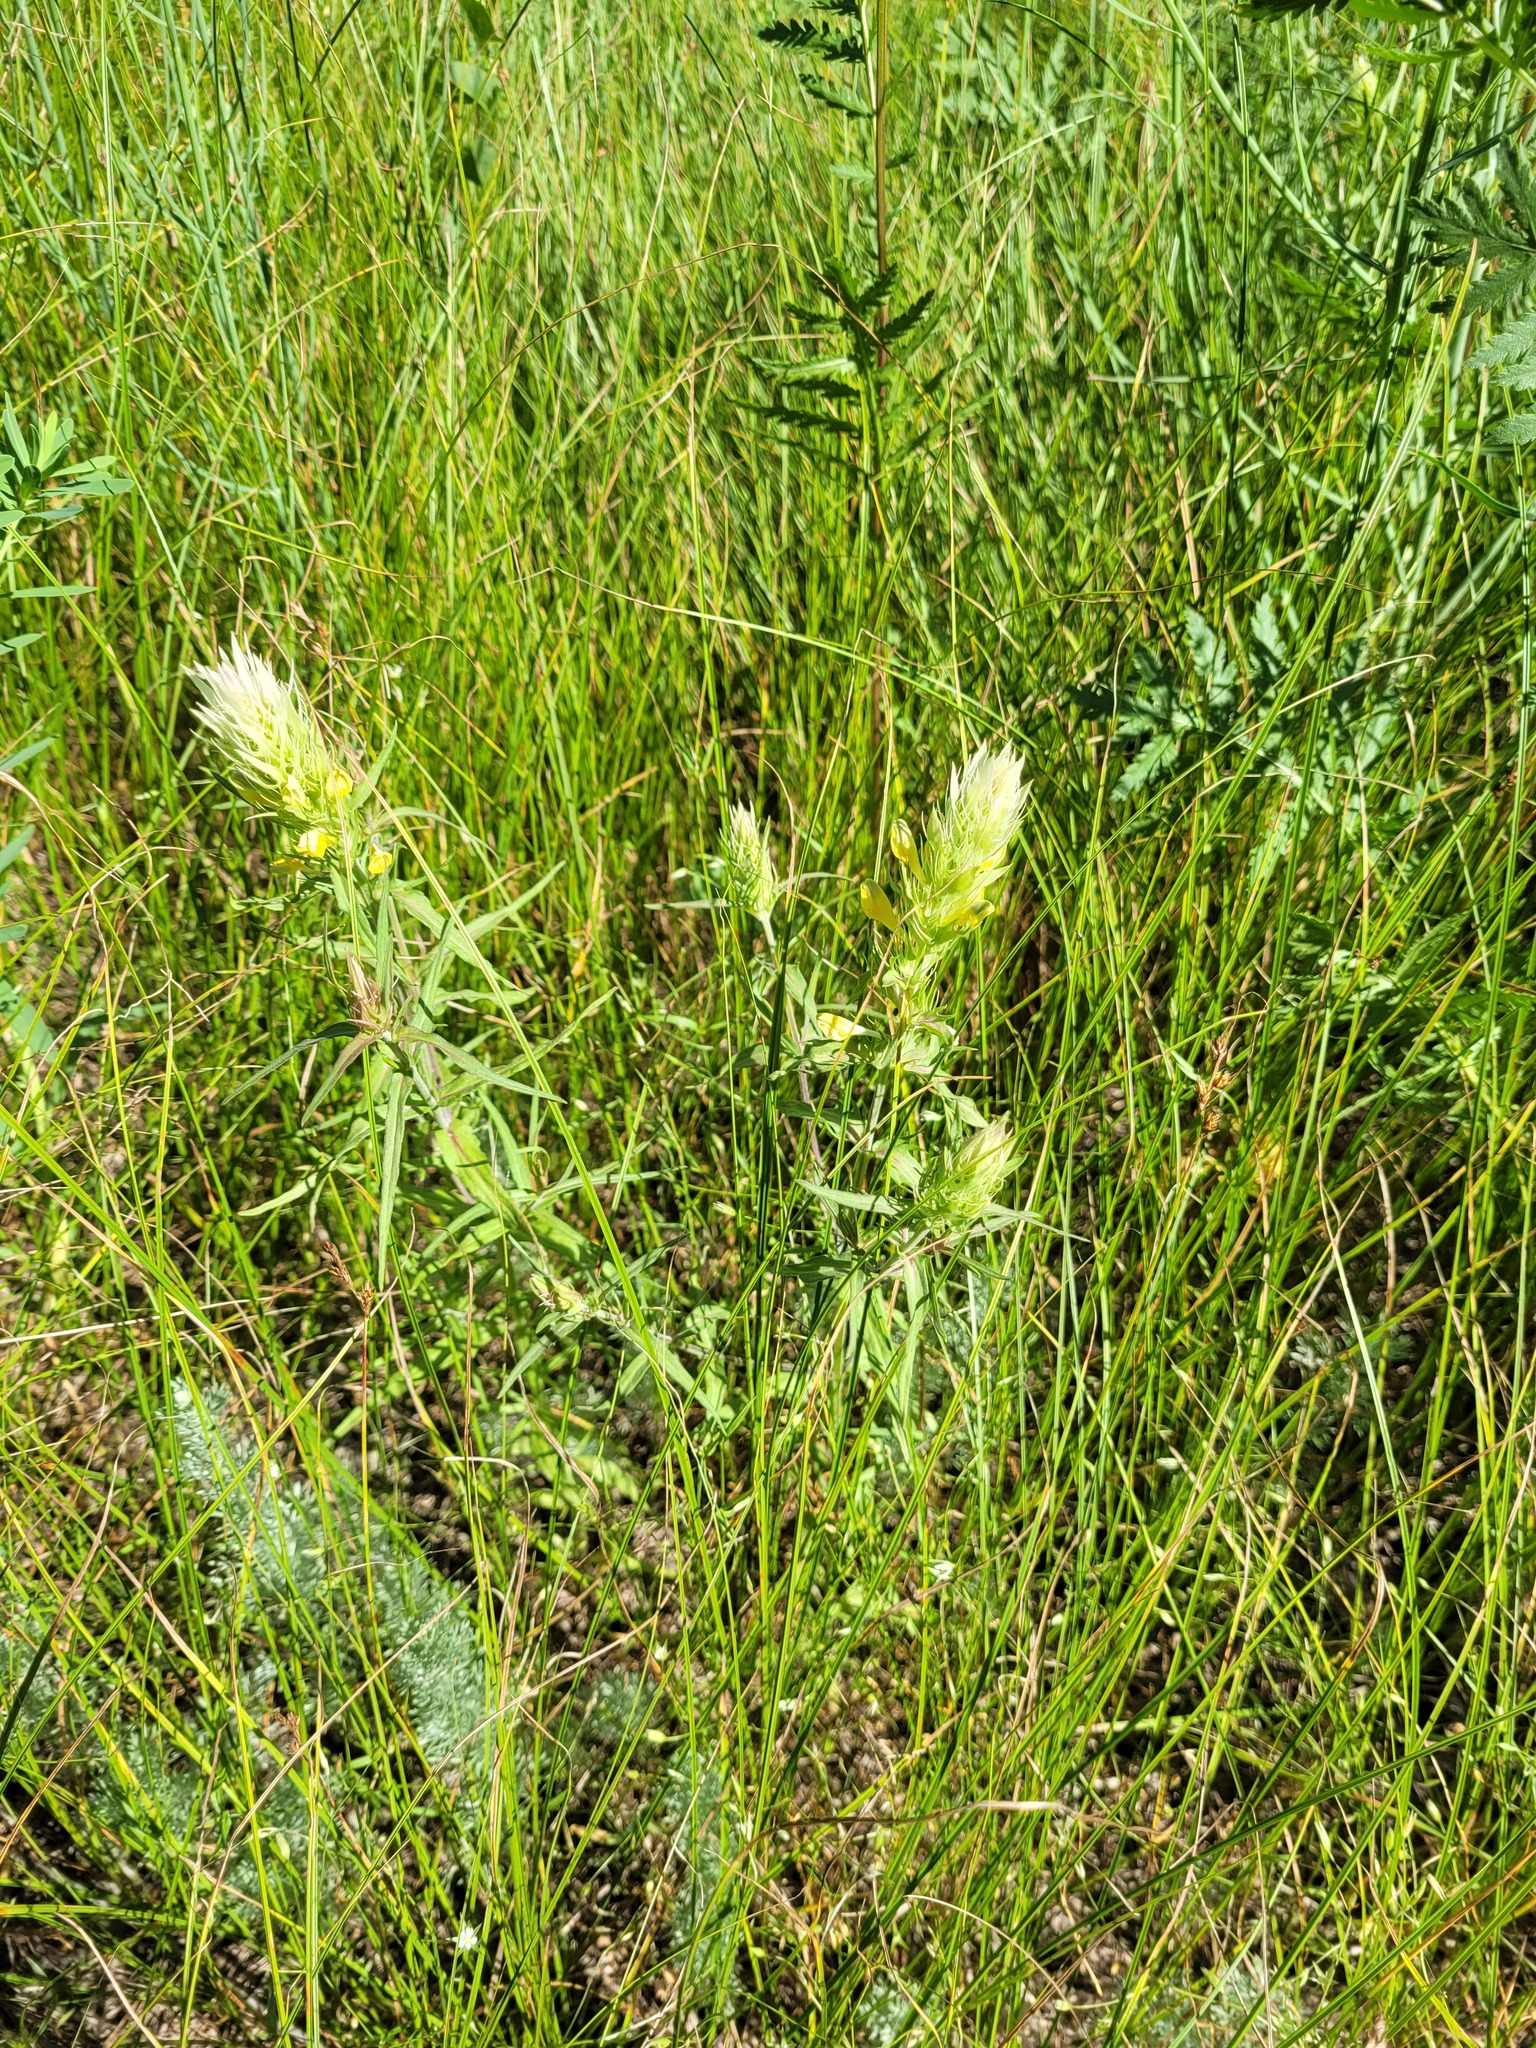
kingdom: Plantae
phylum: Tracheophyta
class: Magnoliopsida
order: Lamiales
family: Orobanchaceae
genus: Melampyrum
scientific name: Melampyrum arvense
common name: Field cow-wheat
